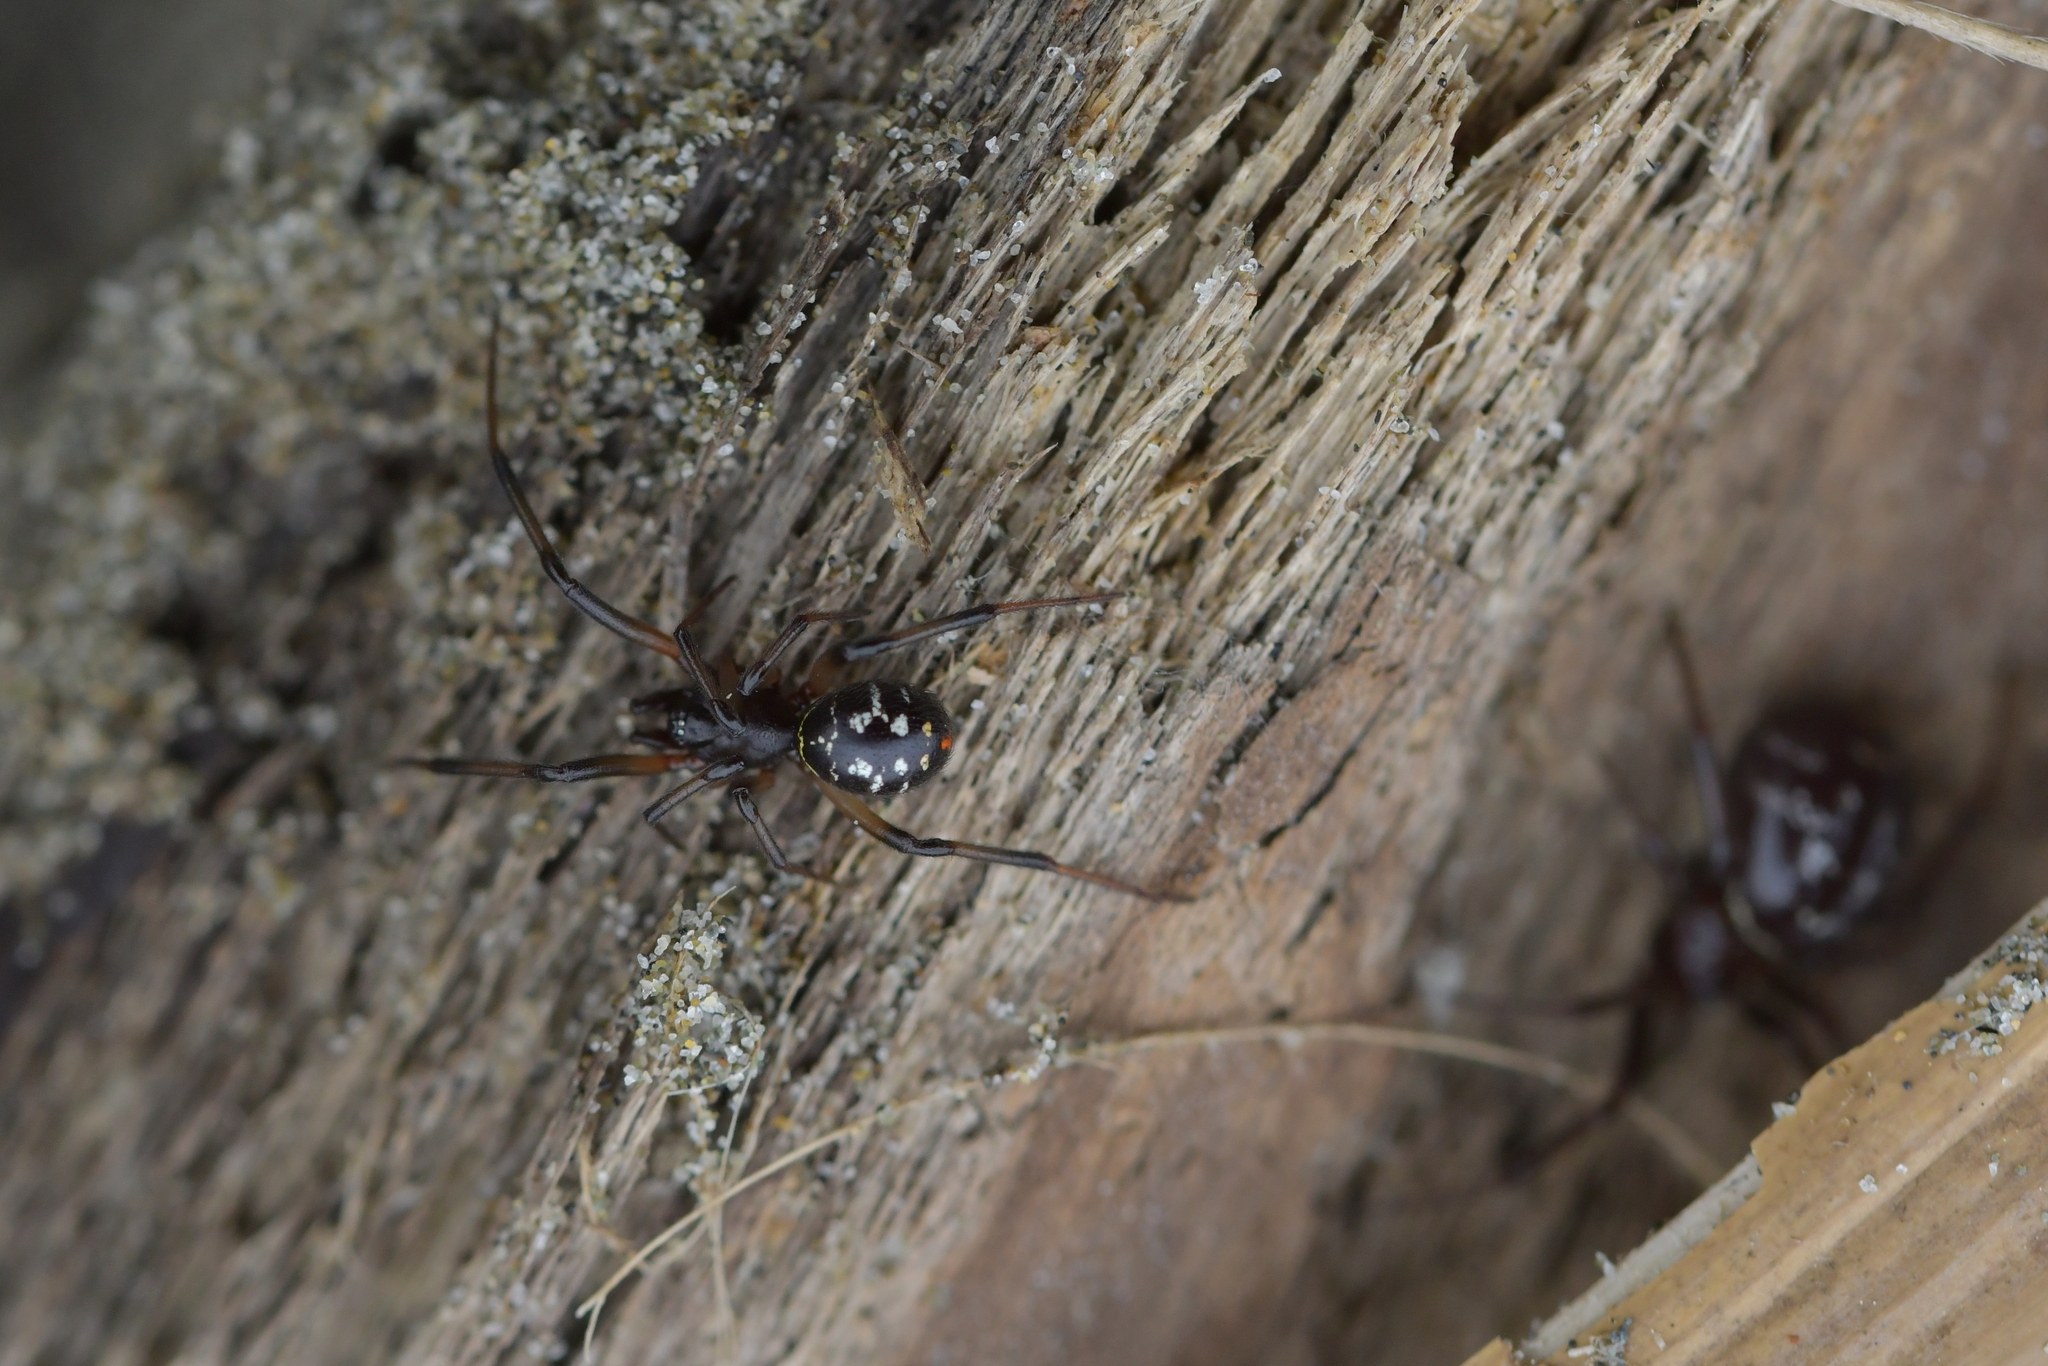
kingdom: Animalia
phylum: Arthropoda
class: Arachnida
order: Araneae
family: Theridiidae
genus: Steatoda
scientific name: Steatoda capensis
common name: Cobweb weaver
